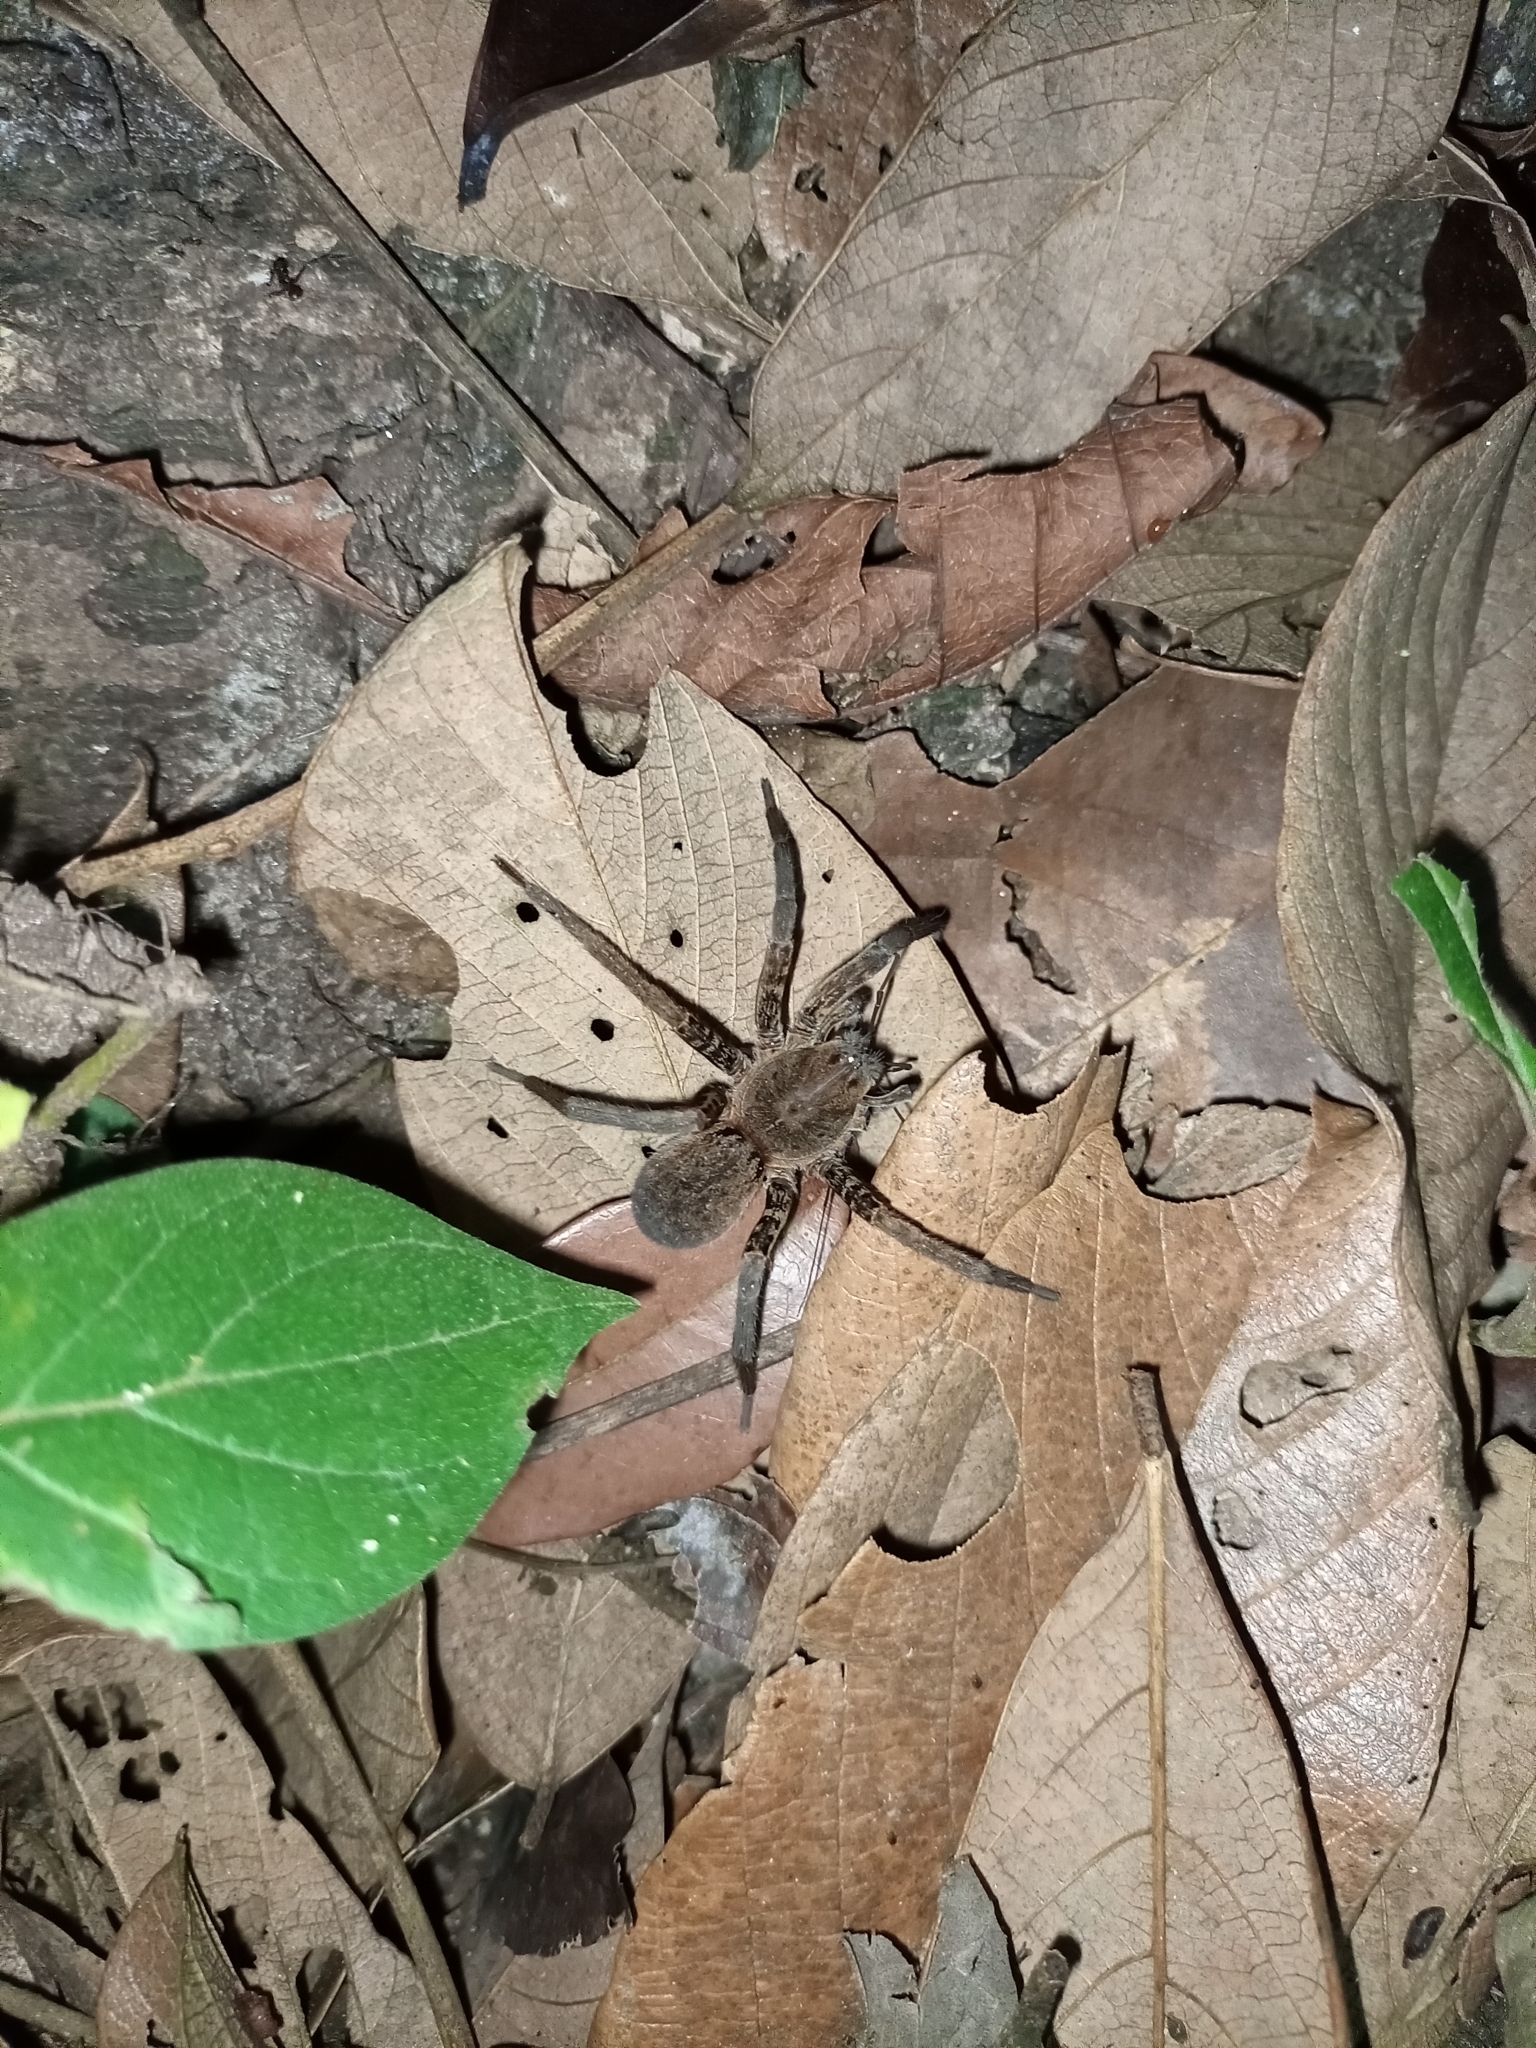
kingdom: Animalia
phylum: Arthropoda
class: Arachnida
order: Araneae
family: Ctenidae
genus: Ancylometes
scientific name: Ancylometes bogotensis
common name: Wandering spiders
